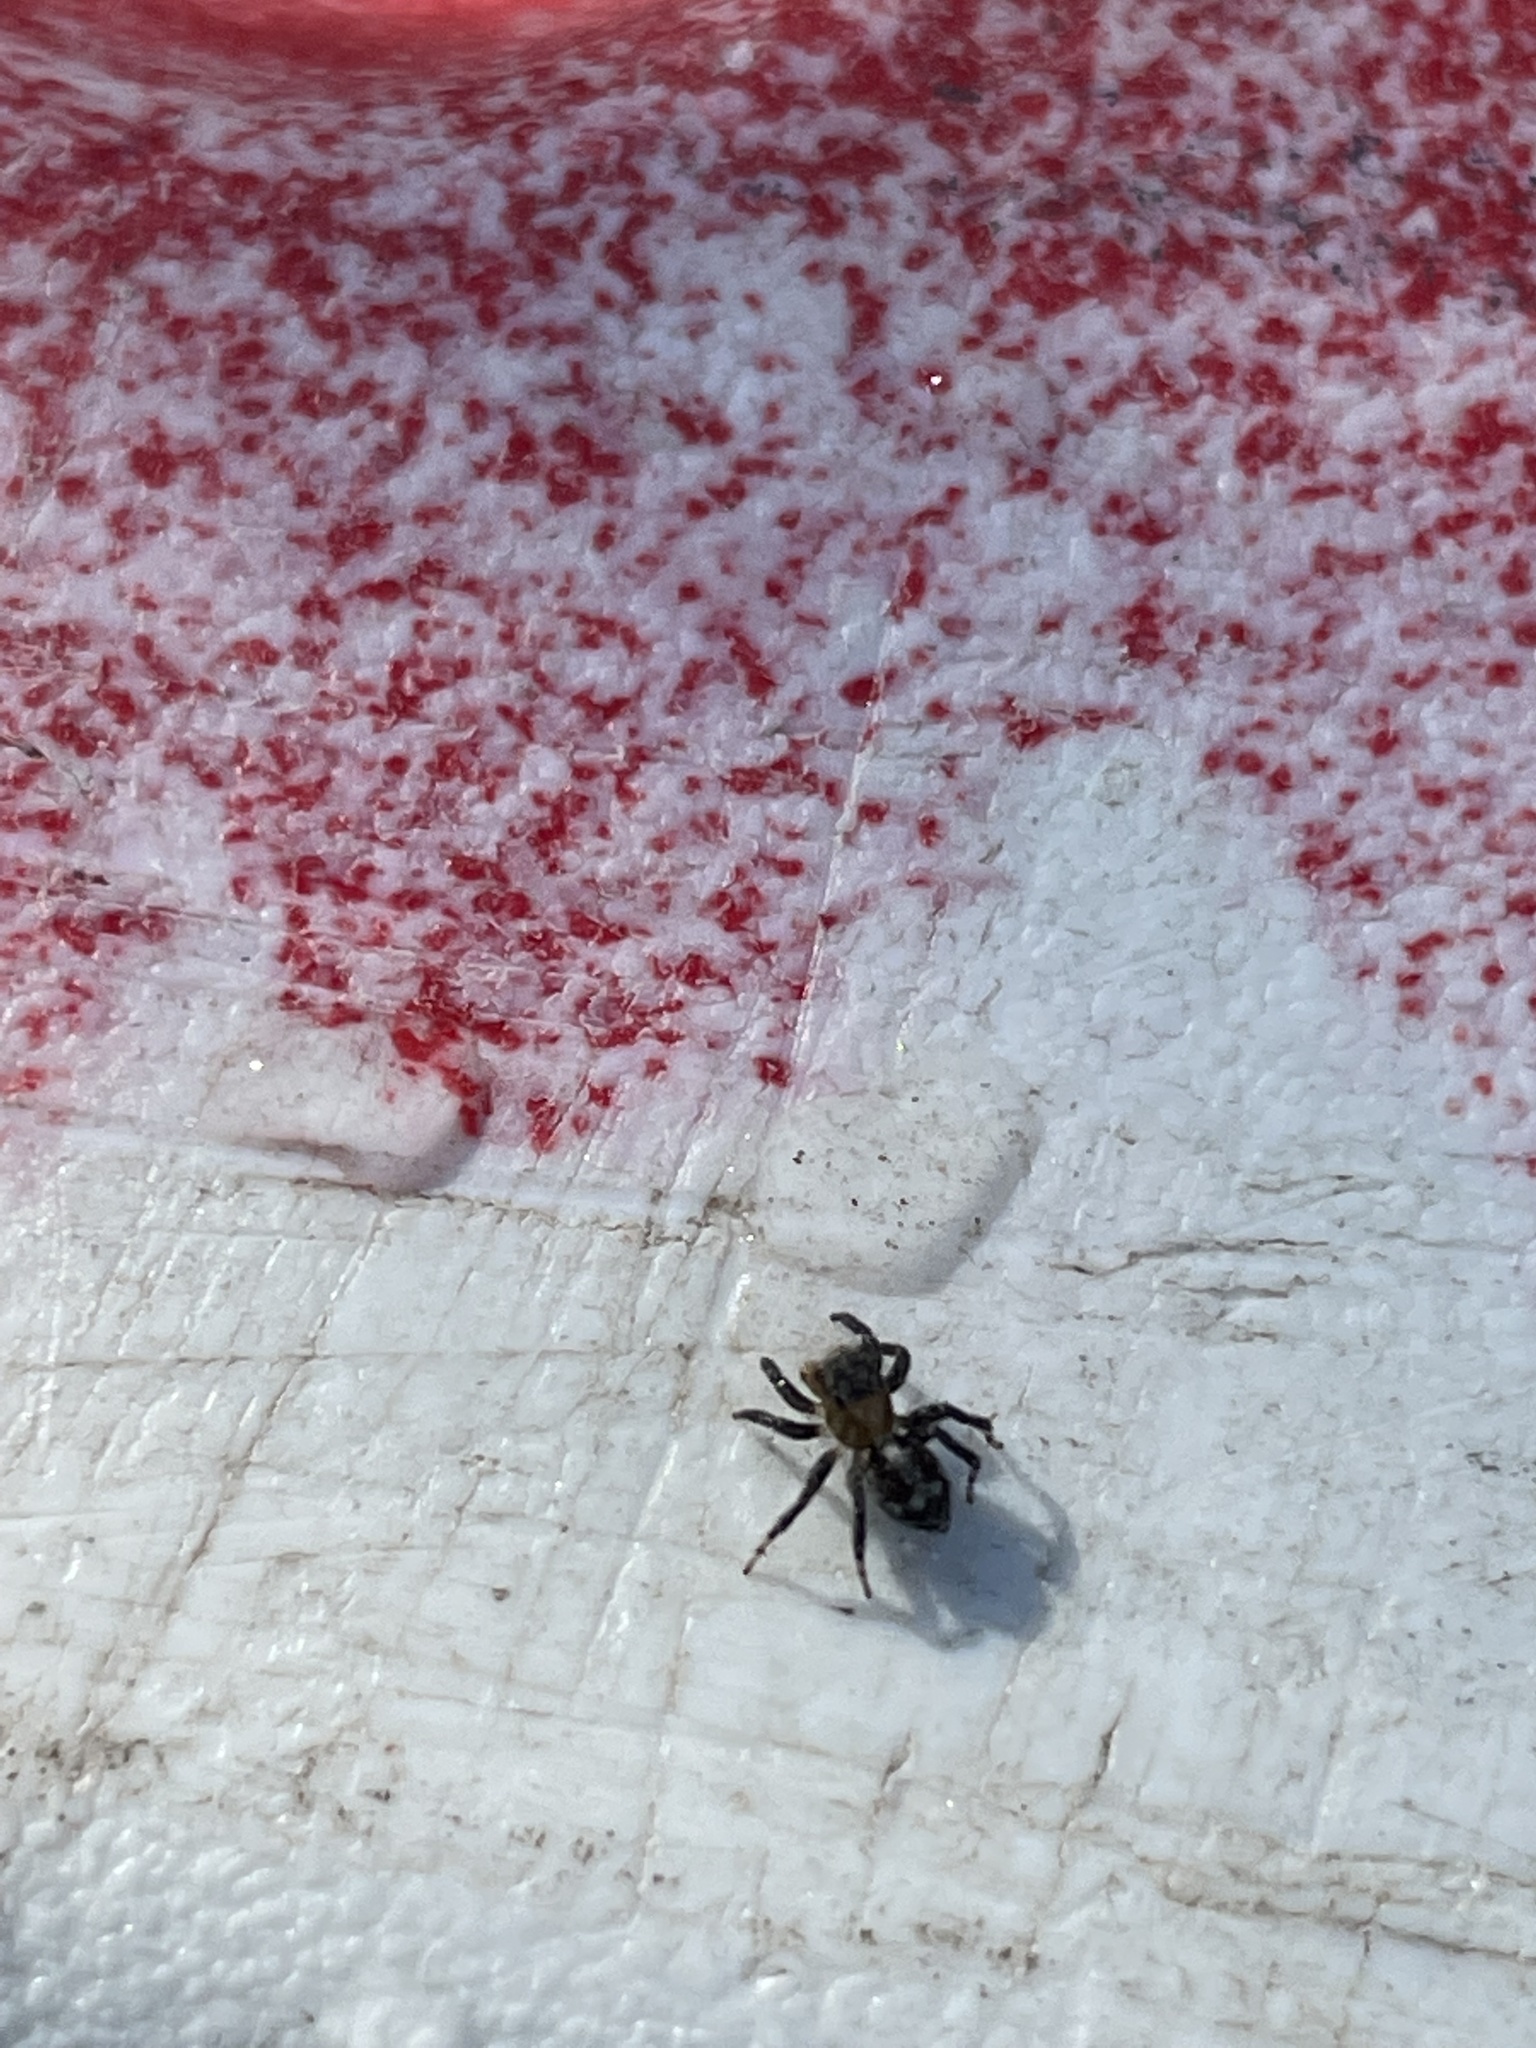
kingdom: Animalia
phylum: Arthropoda
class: Arachnida
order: Araneae
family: Salticidae
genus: Naphrys
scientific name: Naphrys pulex
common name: Flea jumping spider
